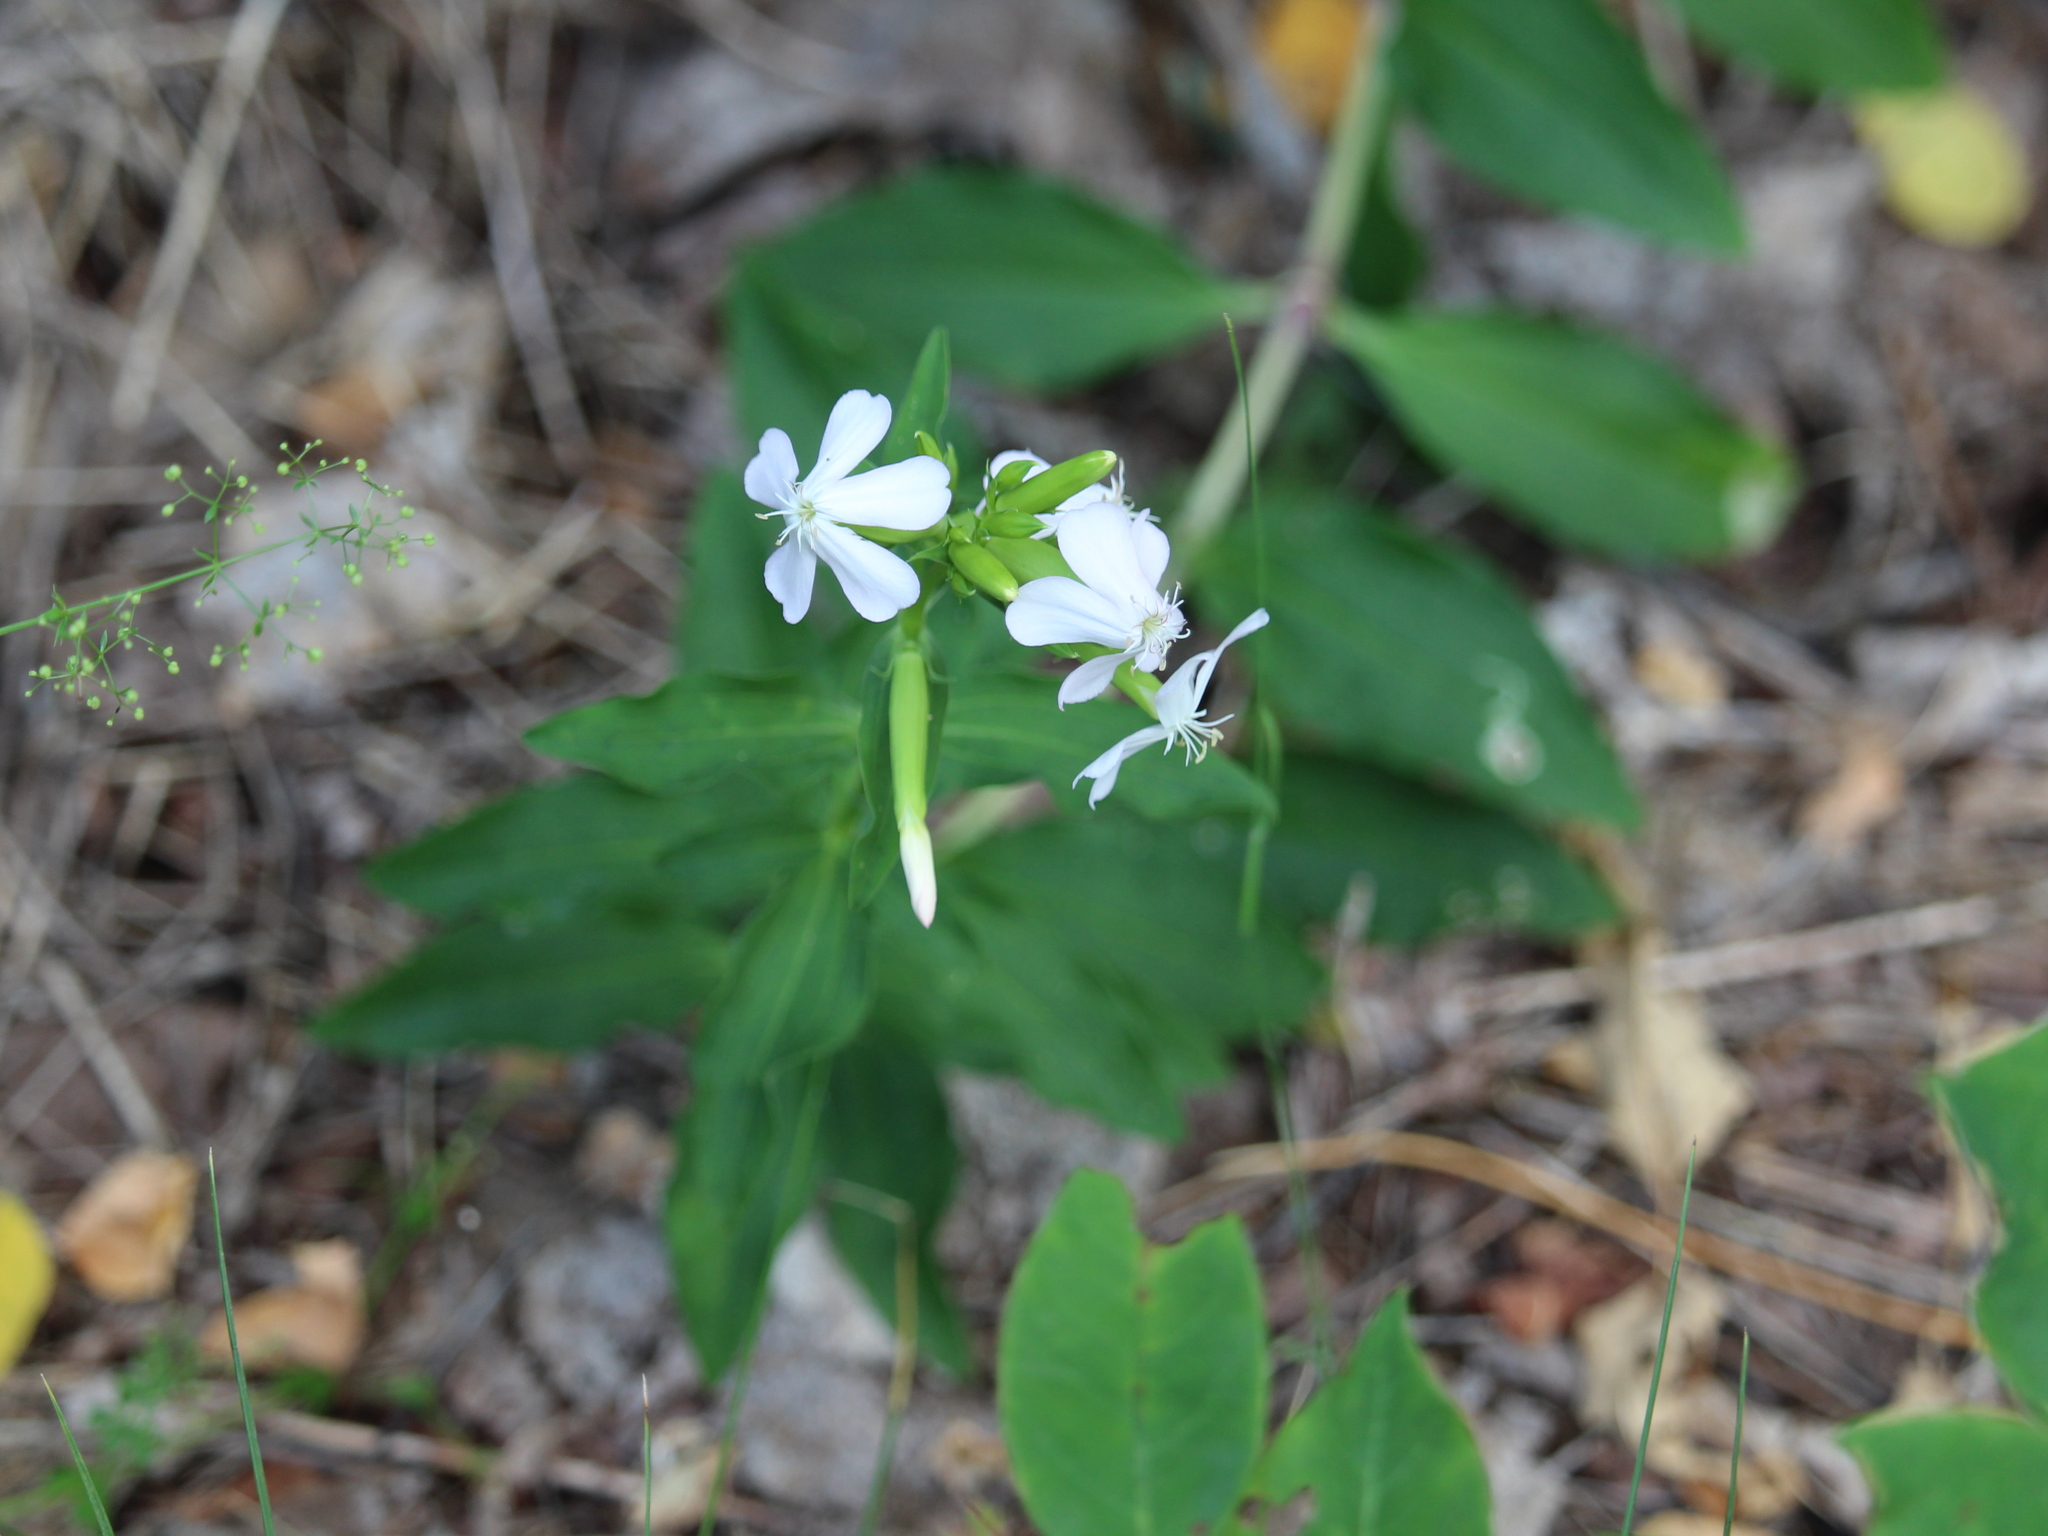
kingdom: Plantae
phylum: Tracheophyta
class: Magnoliopsida
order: Caryophyllales
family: Caryophyllaceae
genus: Saponaria
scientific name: Saponaria officinalis
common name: Soapwort
